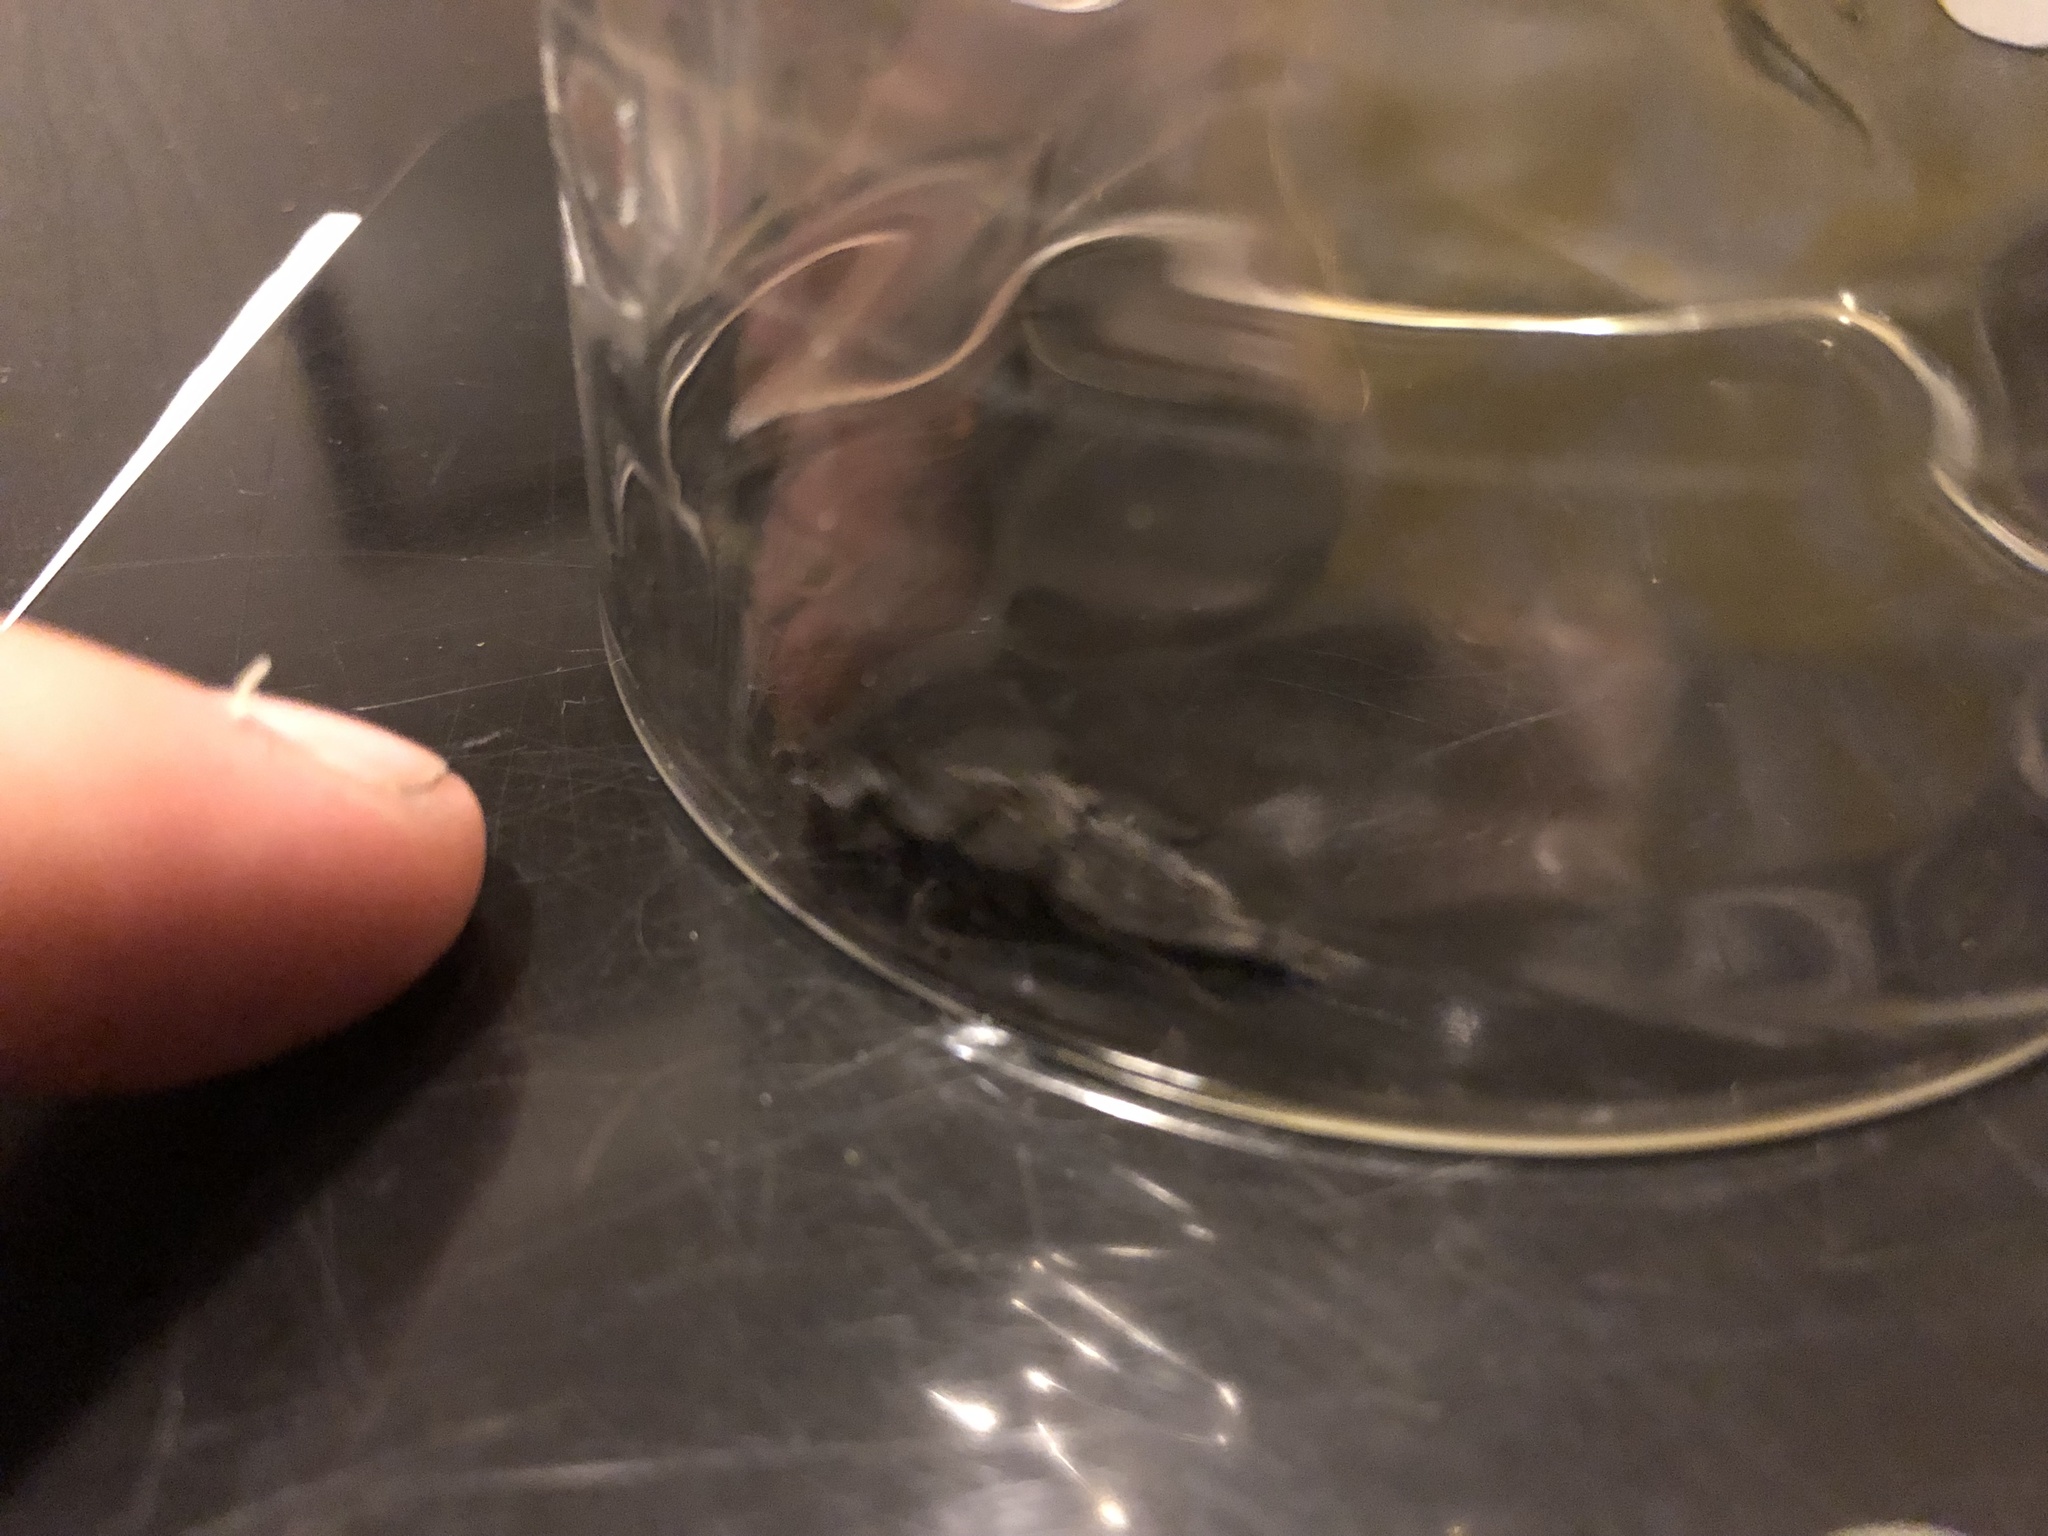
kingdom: Animalia
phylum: Arthropoda
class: Insecta
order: Coleoptera
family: Staphylinidae
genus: Ocypus
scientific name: Ocypus olens
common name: Devil's coach-horse
